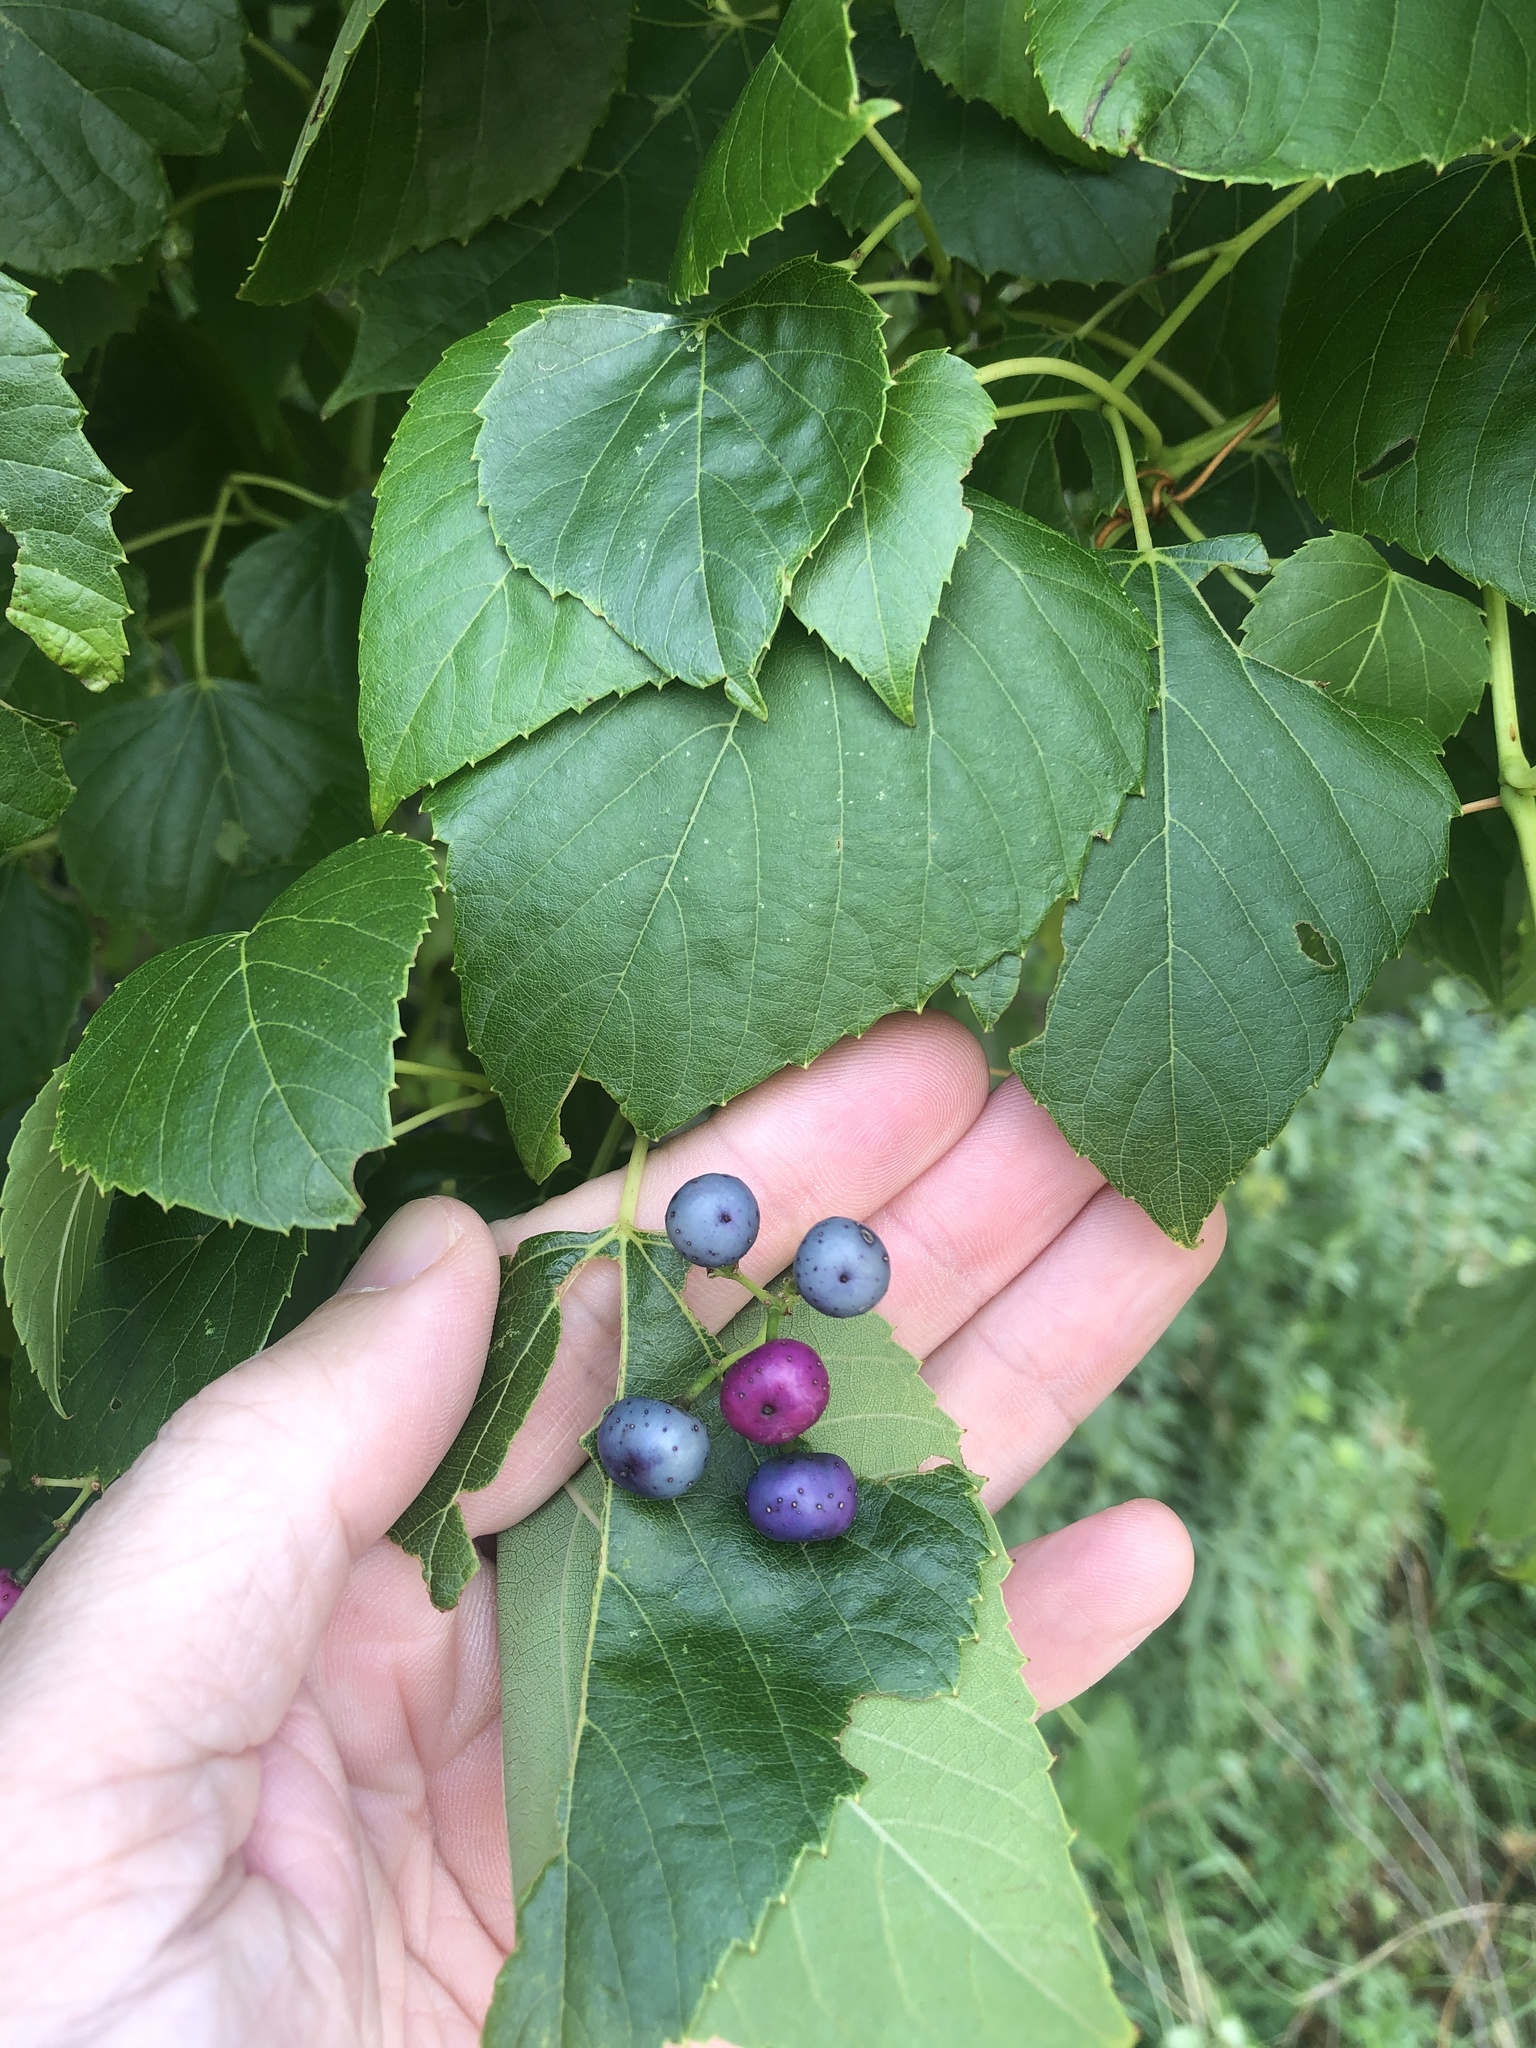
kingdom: Plantae
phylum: Tracheophyta
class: Magnoliopsida
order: Vitales
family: Vitaceae
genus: Ampelopsis
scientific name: Ampelopsis cordata
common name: Heart-leaf ampelopsis
